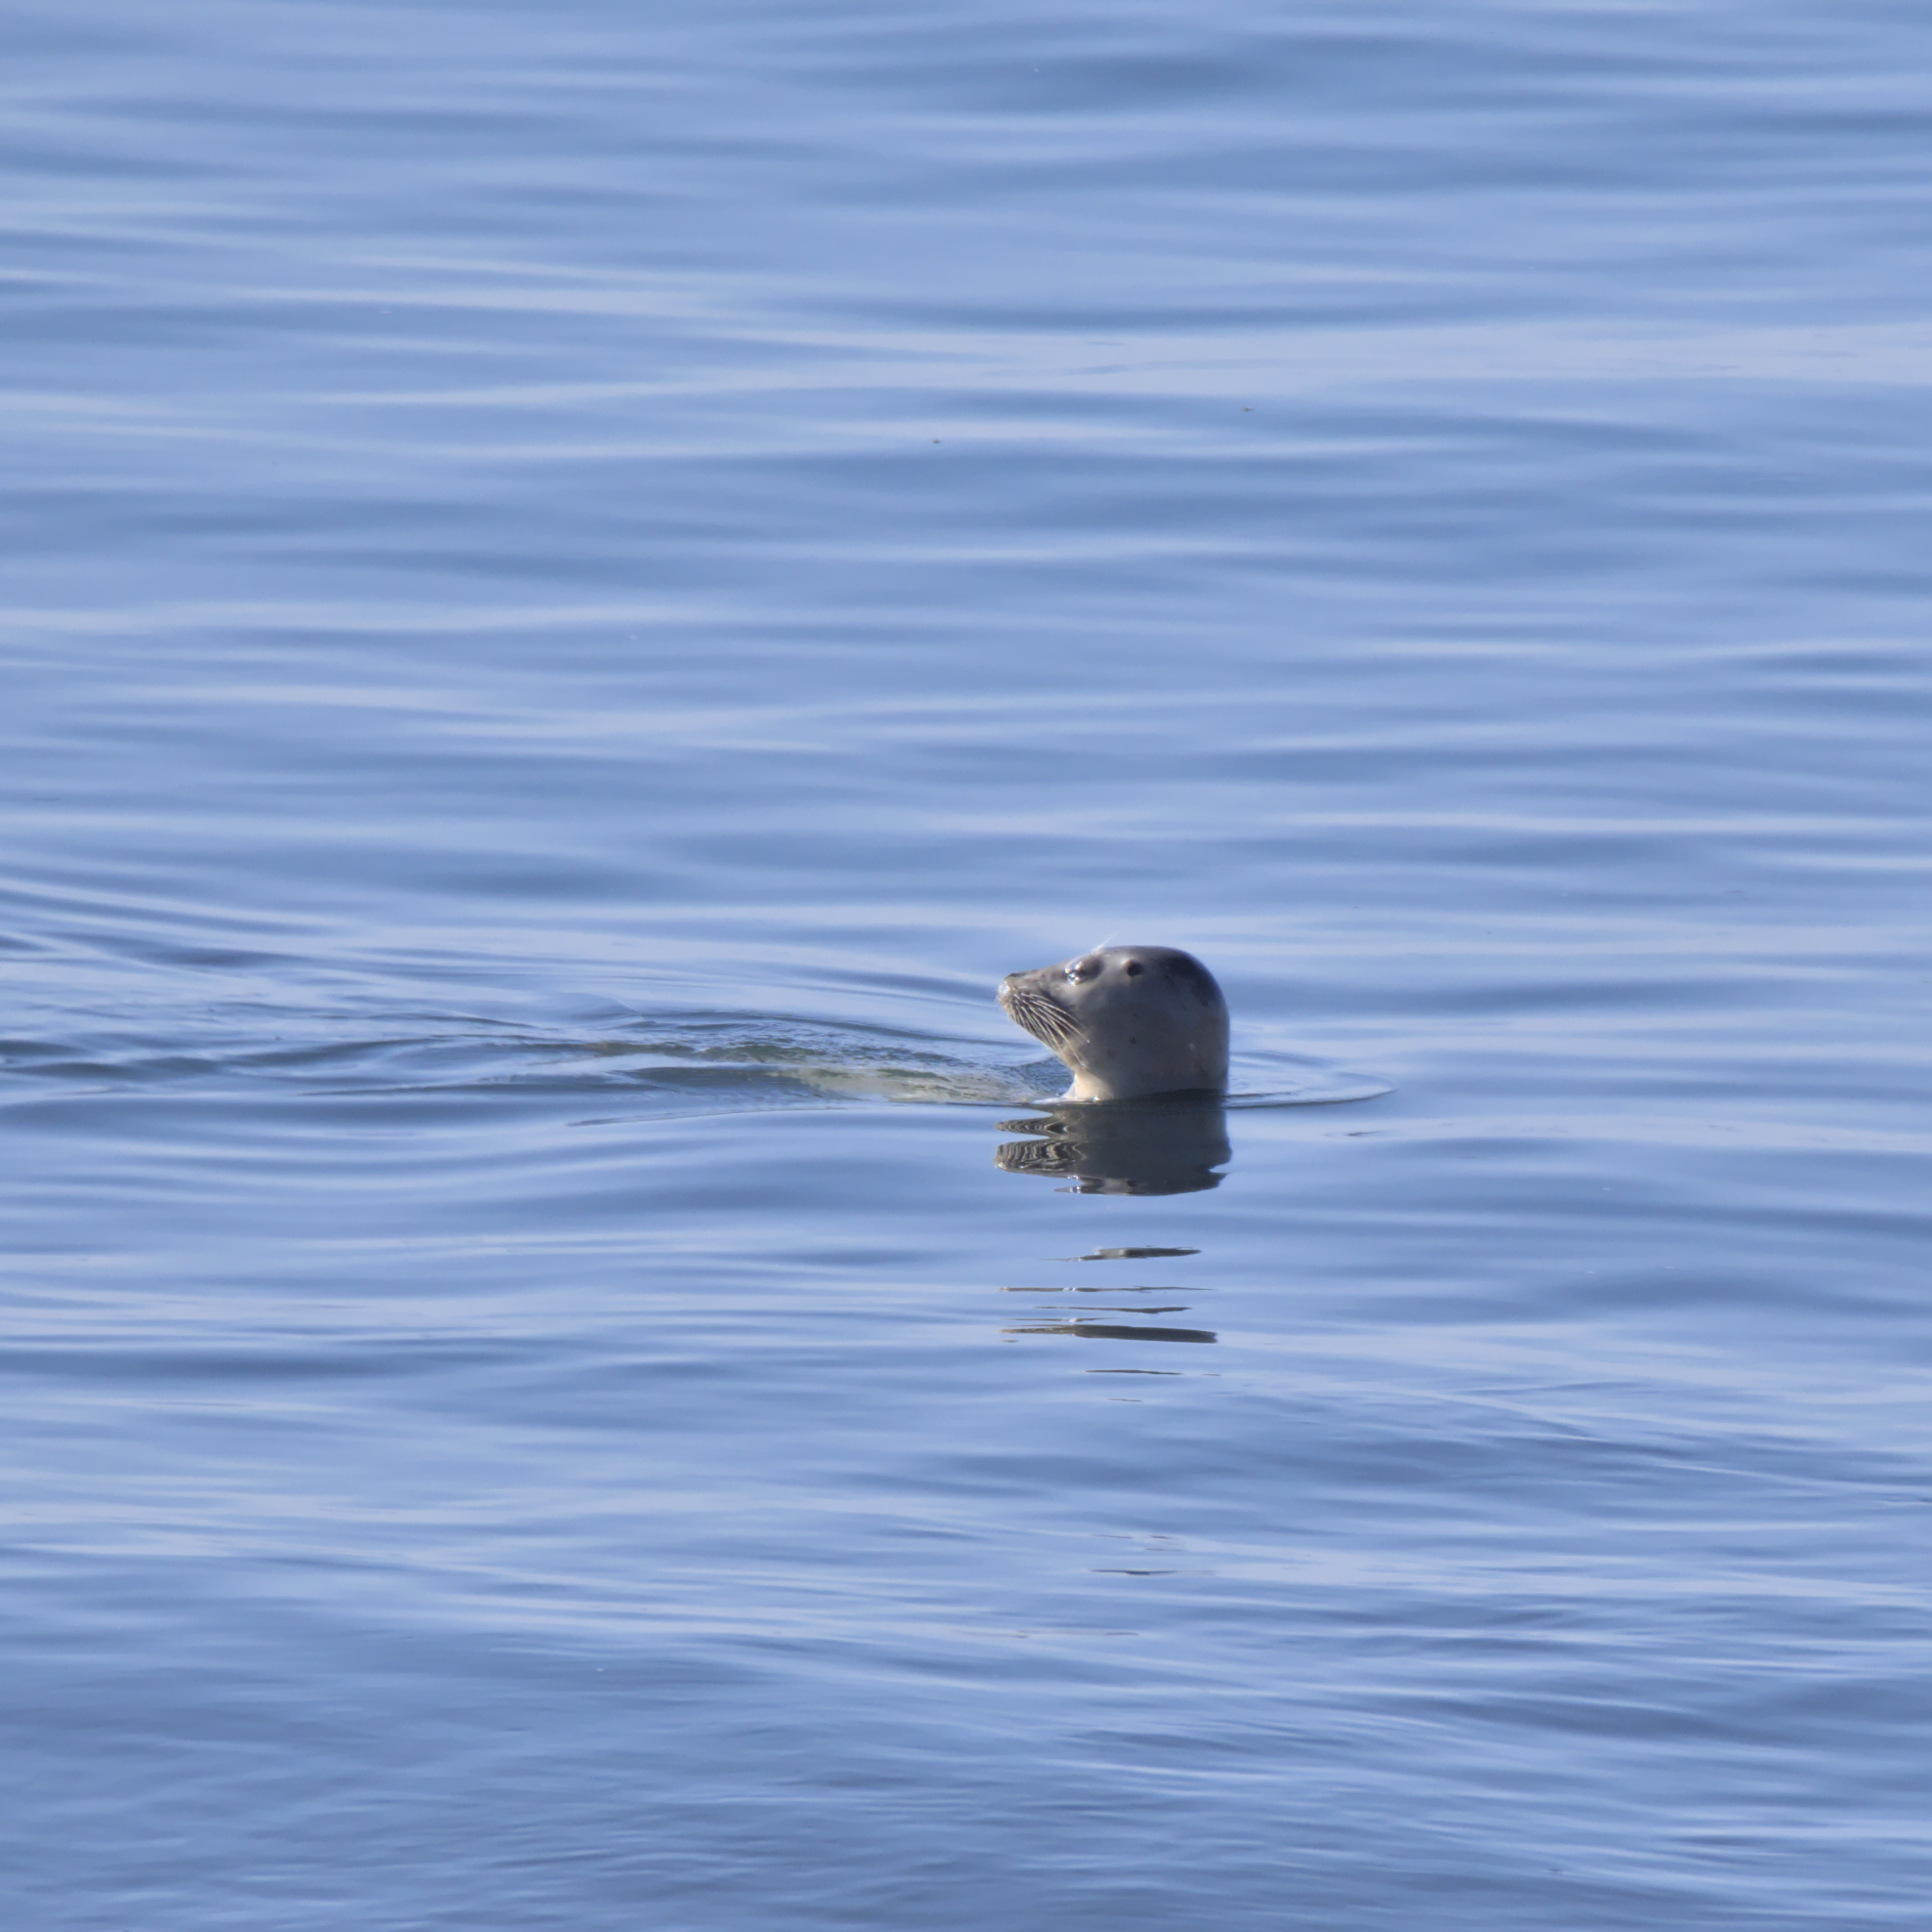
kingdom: Animalia
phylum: Chordata
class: Mammalia
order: Carnivora
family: Phocidae
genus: Phoca
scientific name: Phoca vitulina
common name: Harbor seal
